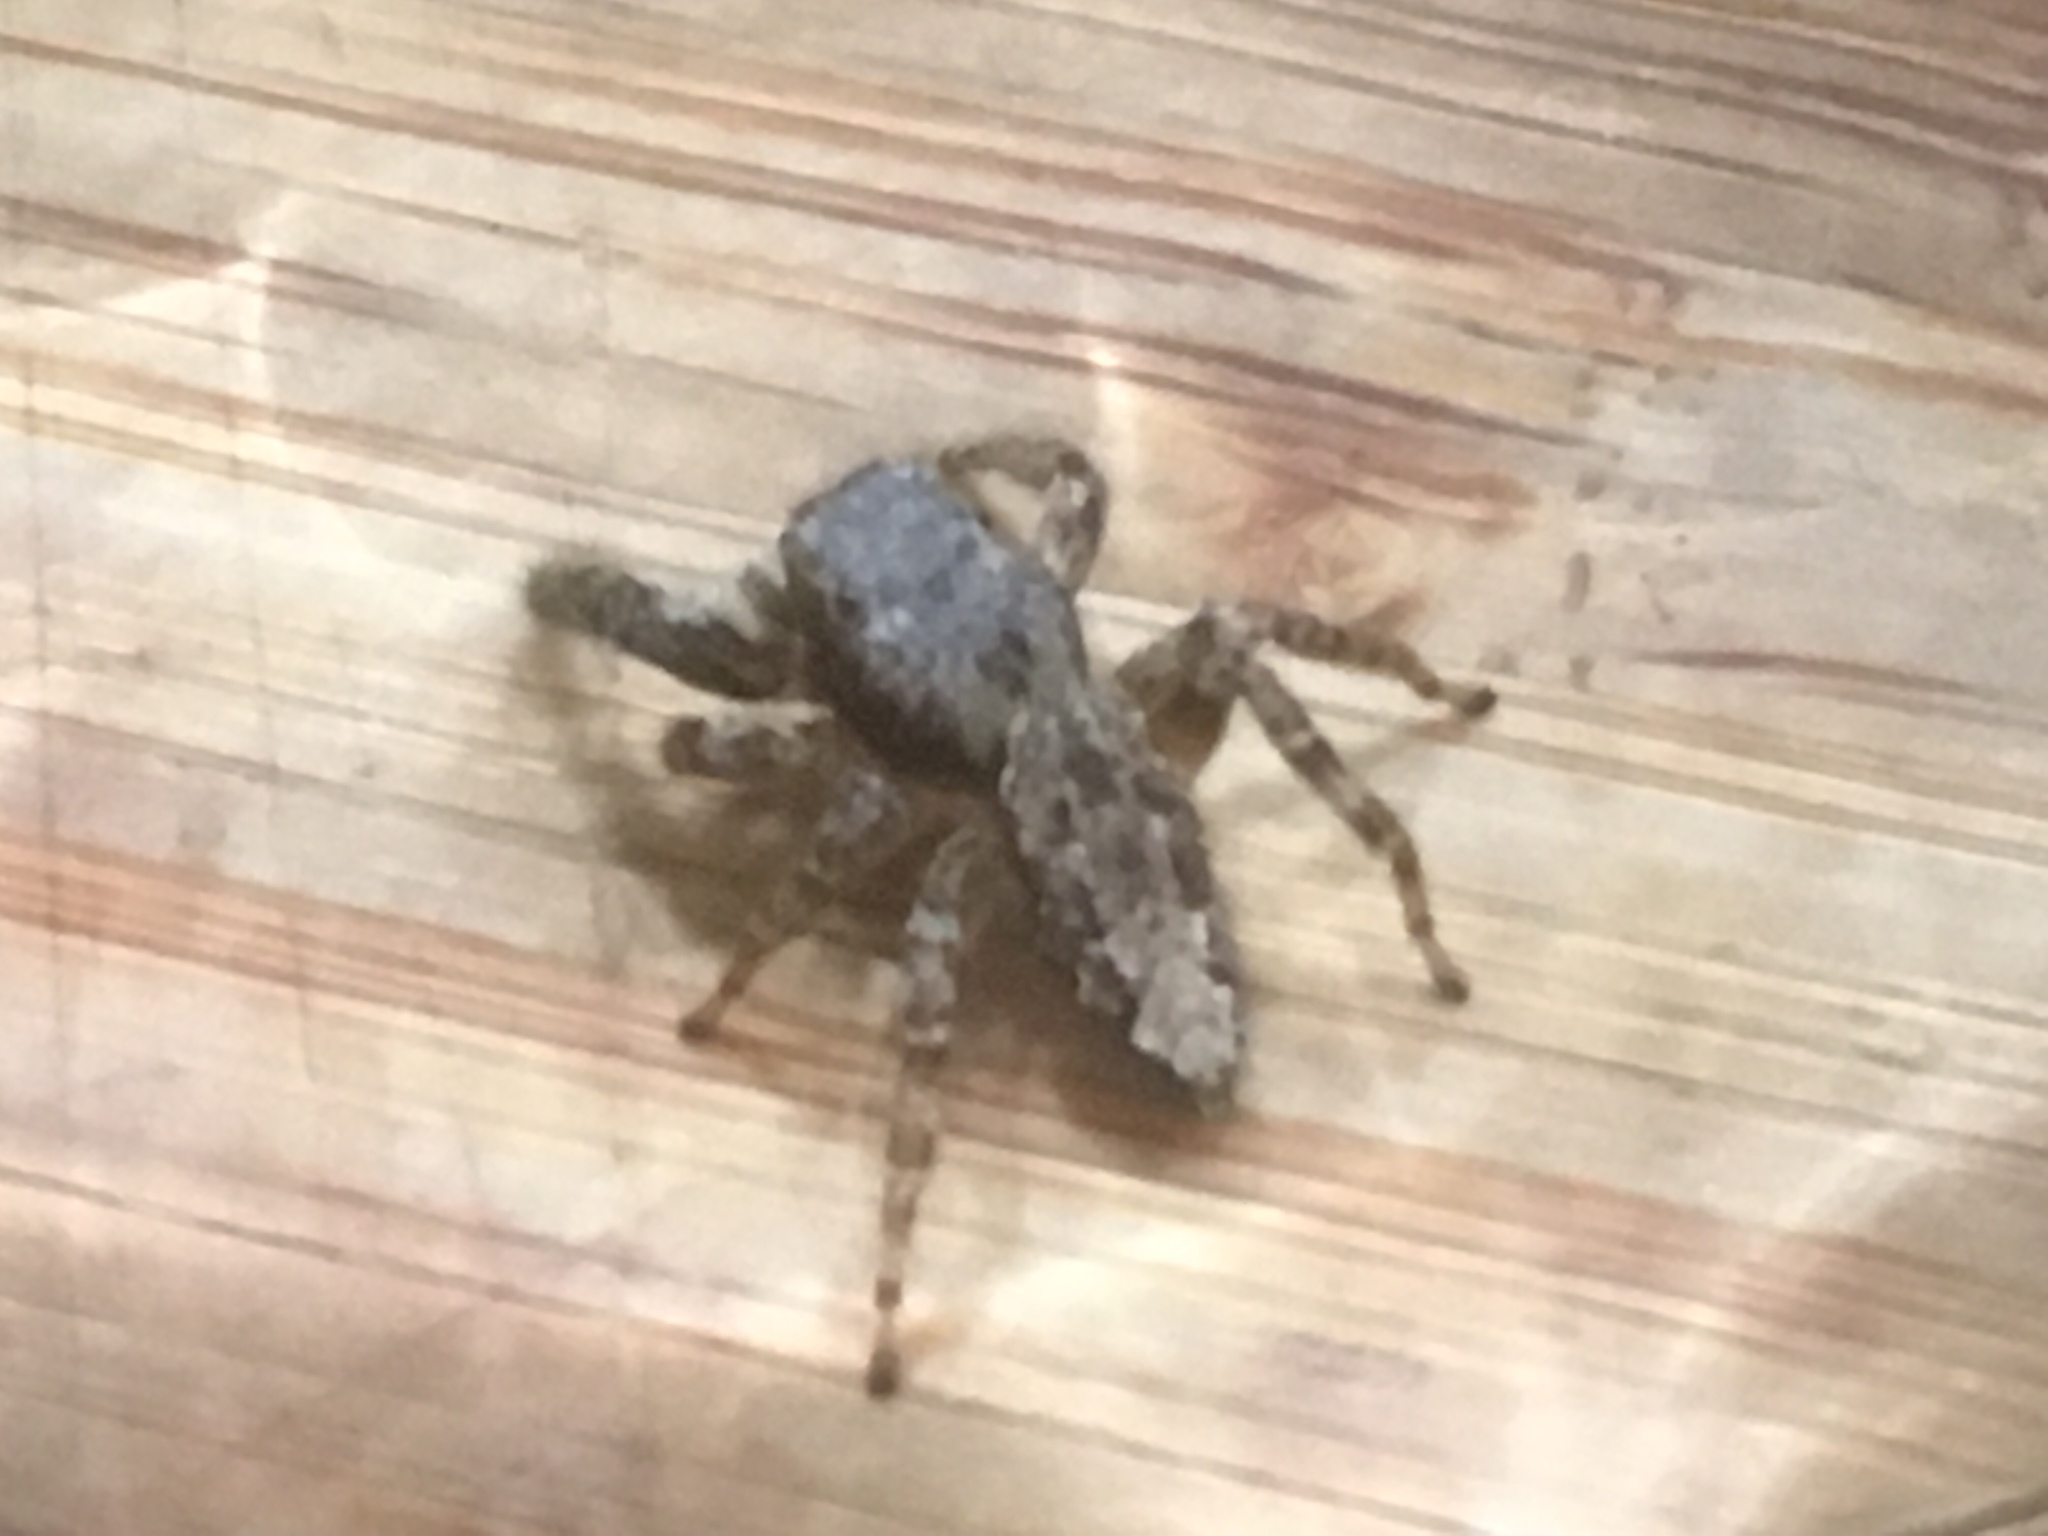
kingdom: Animalia
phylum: Arthropoda
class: Arachnida
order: Araneae
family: Salticidae
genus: Marpissa
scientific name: Marpissa muscosa
